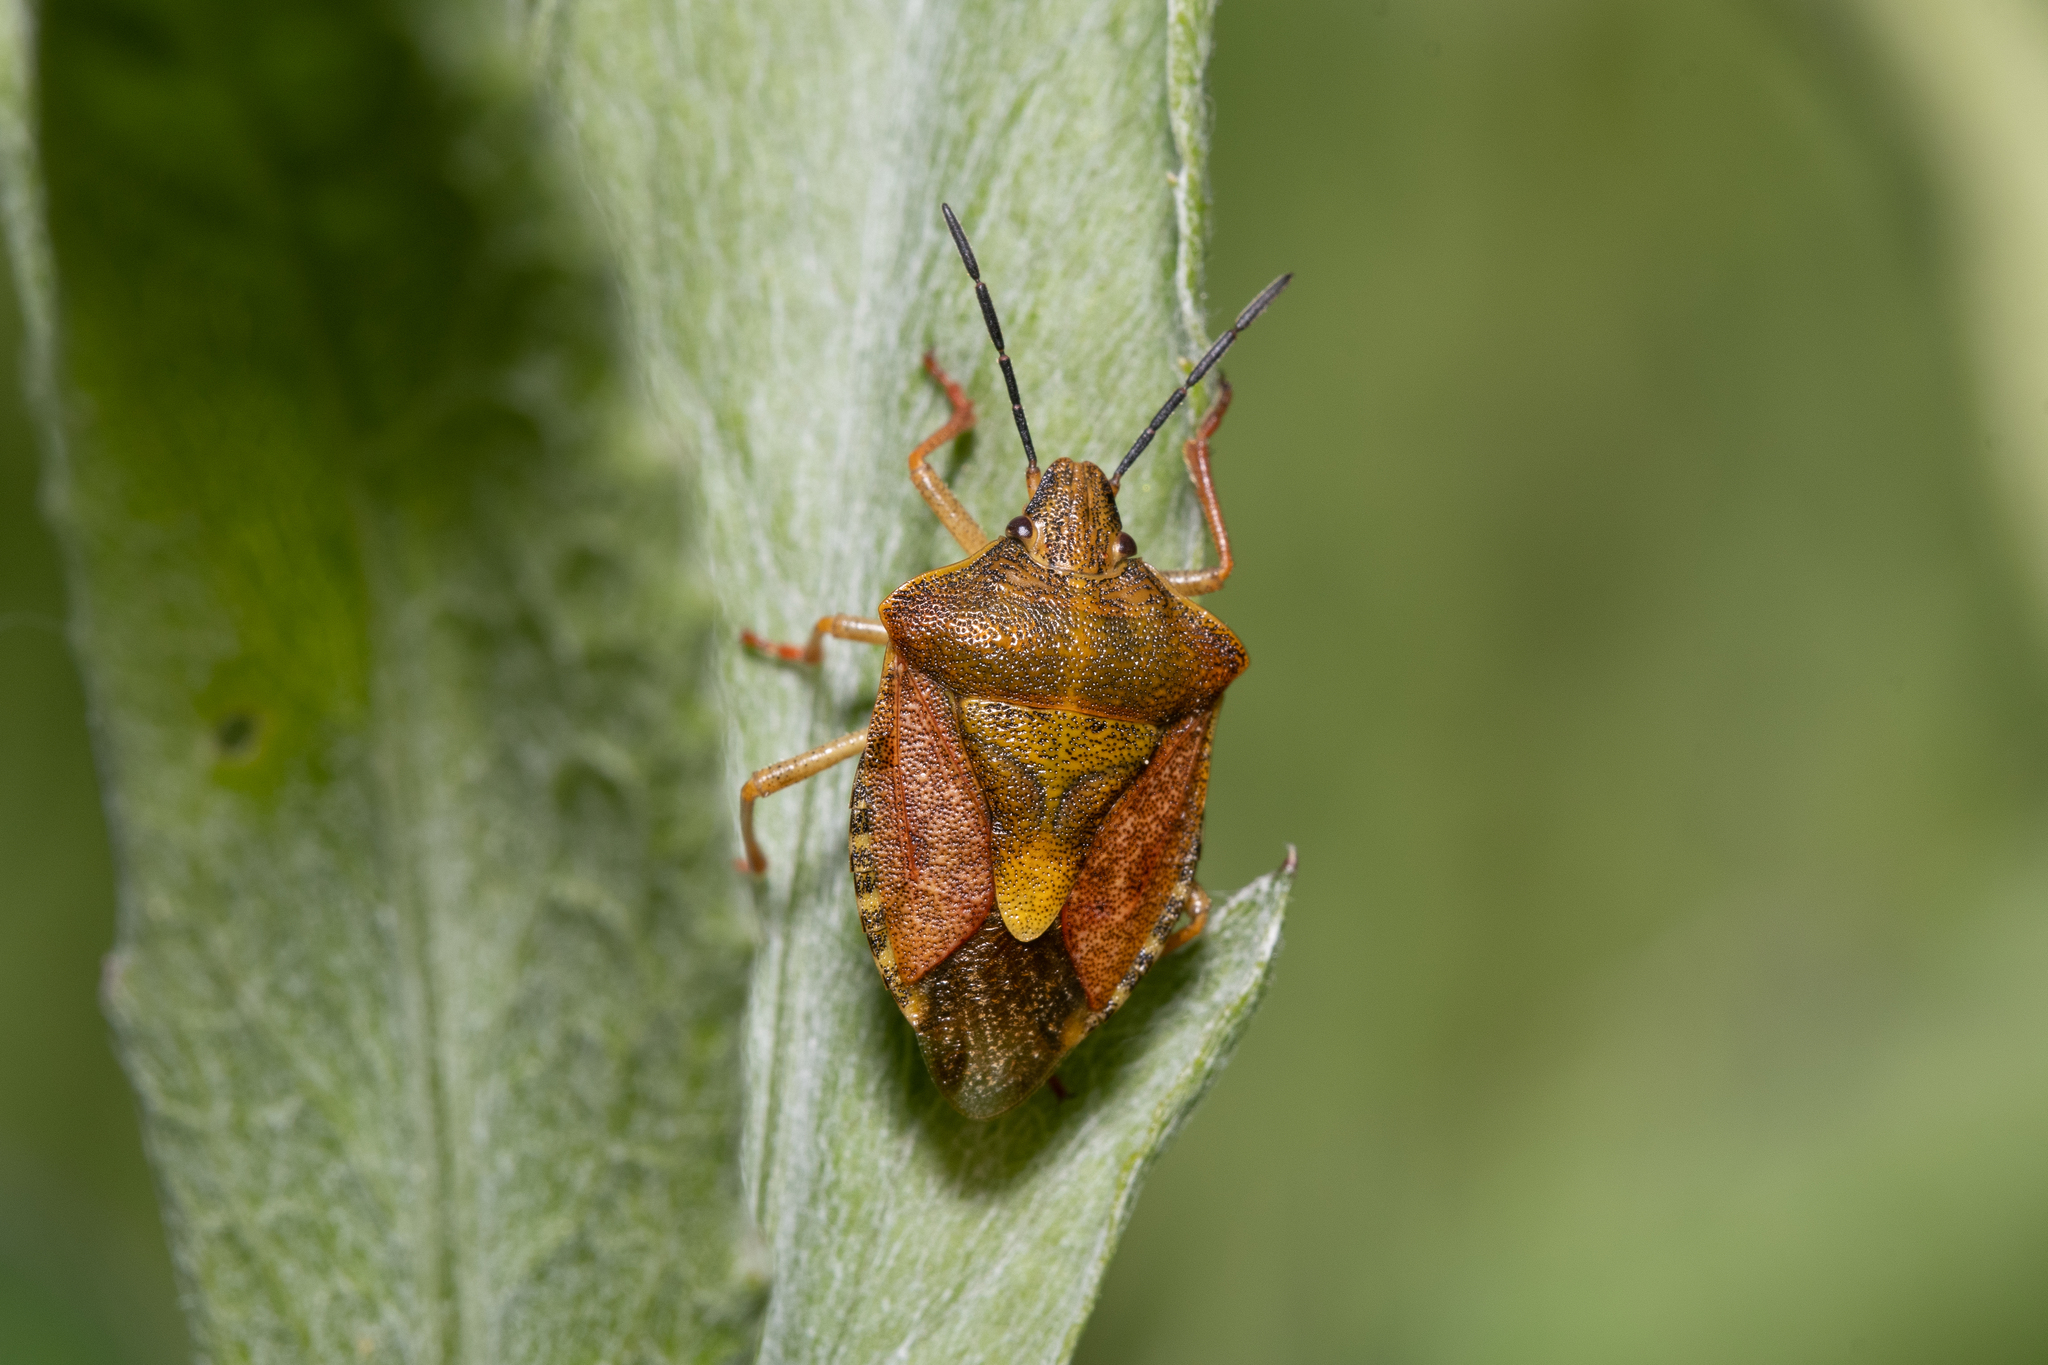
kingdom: Animalia
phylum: Arthropoda
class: Insecta
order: Hemiptera
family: Pentatomidae
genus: Carpocoris
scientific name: Carpocoris purpureipennis
